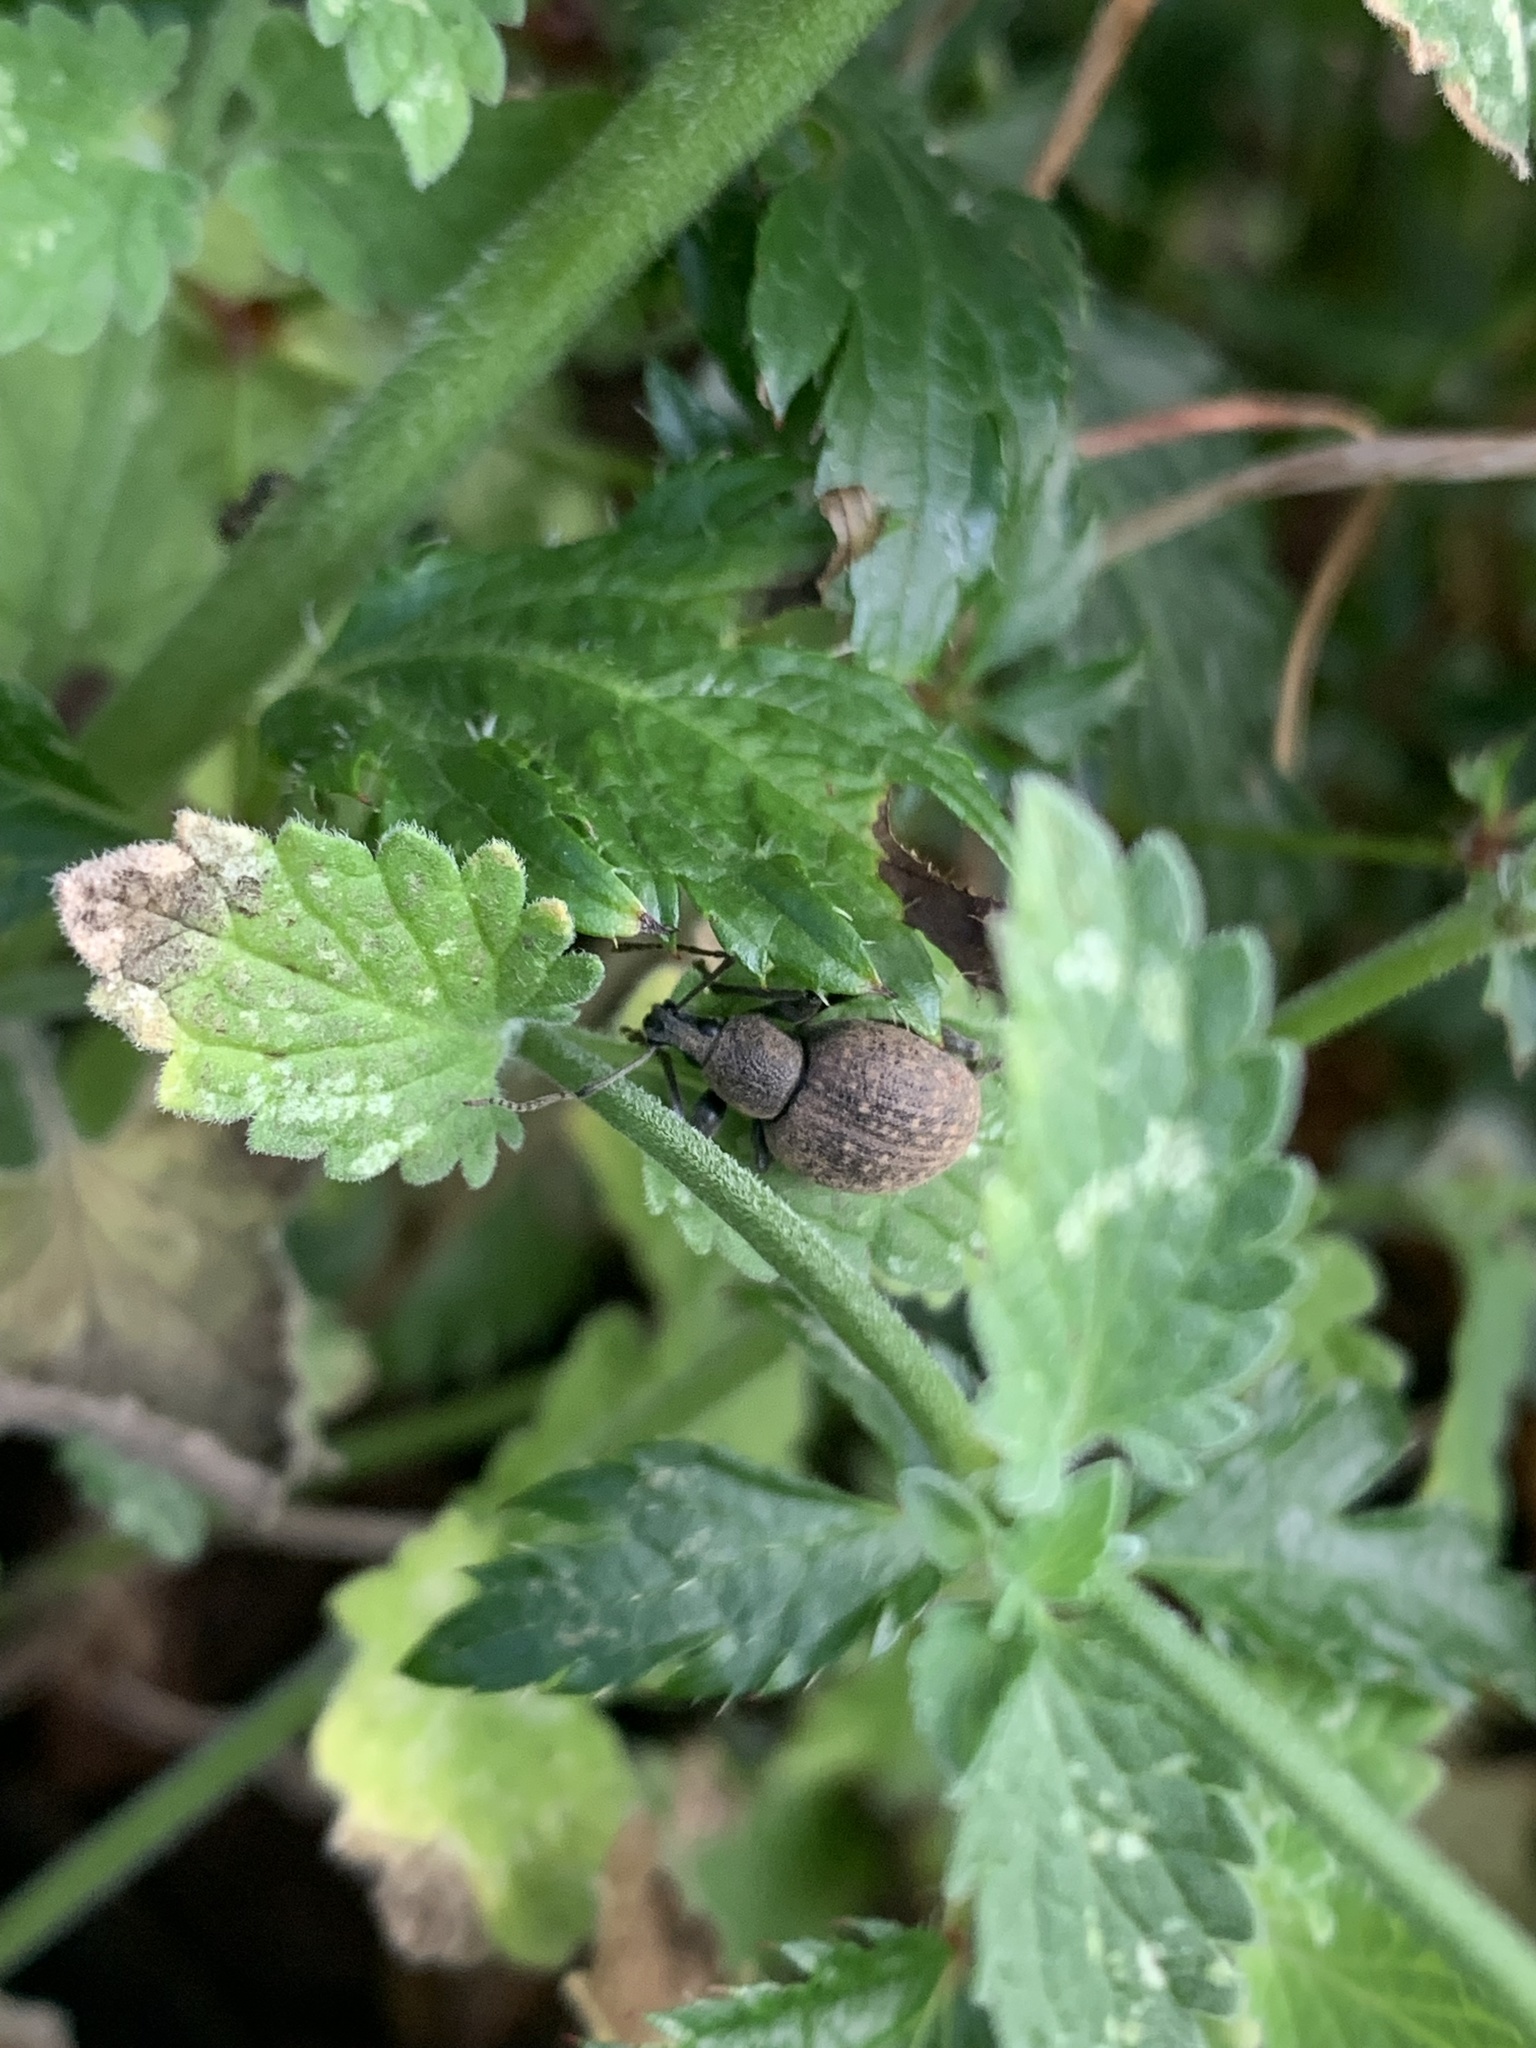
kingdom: Animalia
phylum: Arthropoda
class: Insecta
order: Coleoptera
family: Curculionidae
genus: Otiorhynchus
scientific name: Otiorhynchus armadillo
